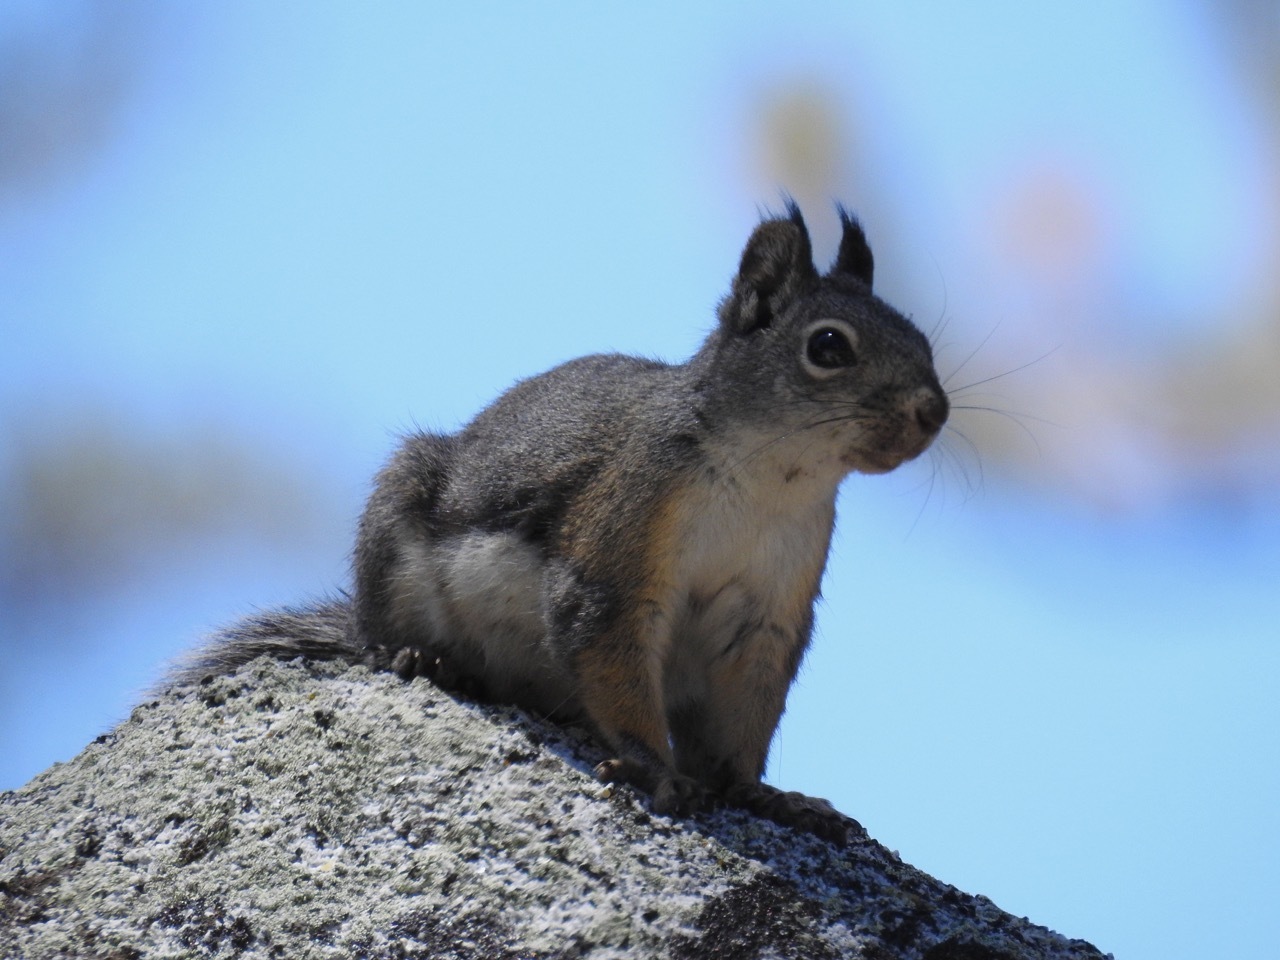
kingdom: Animalia
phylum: Chordata
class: Mammalia
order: Rodentia
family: Sciuridae
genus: Tamiasciurus
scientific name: Tamiasciurus douglasii
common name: Douglas's squirrel
